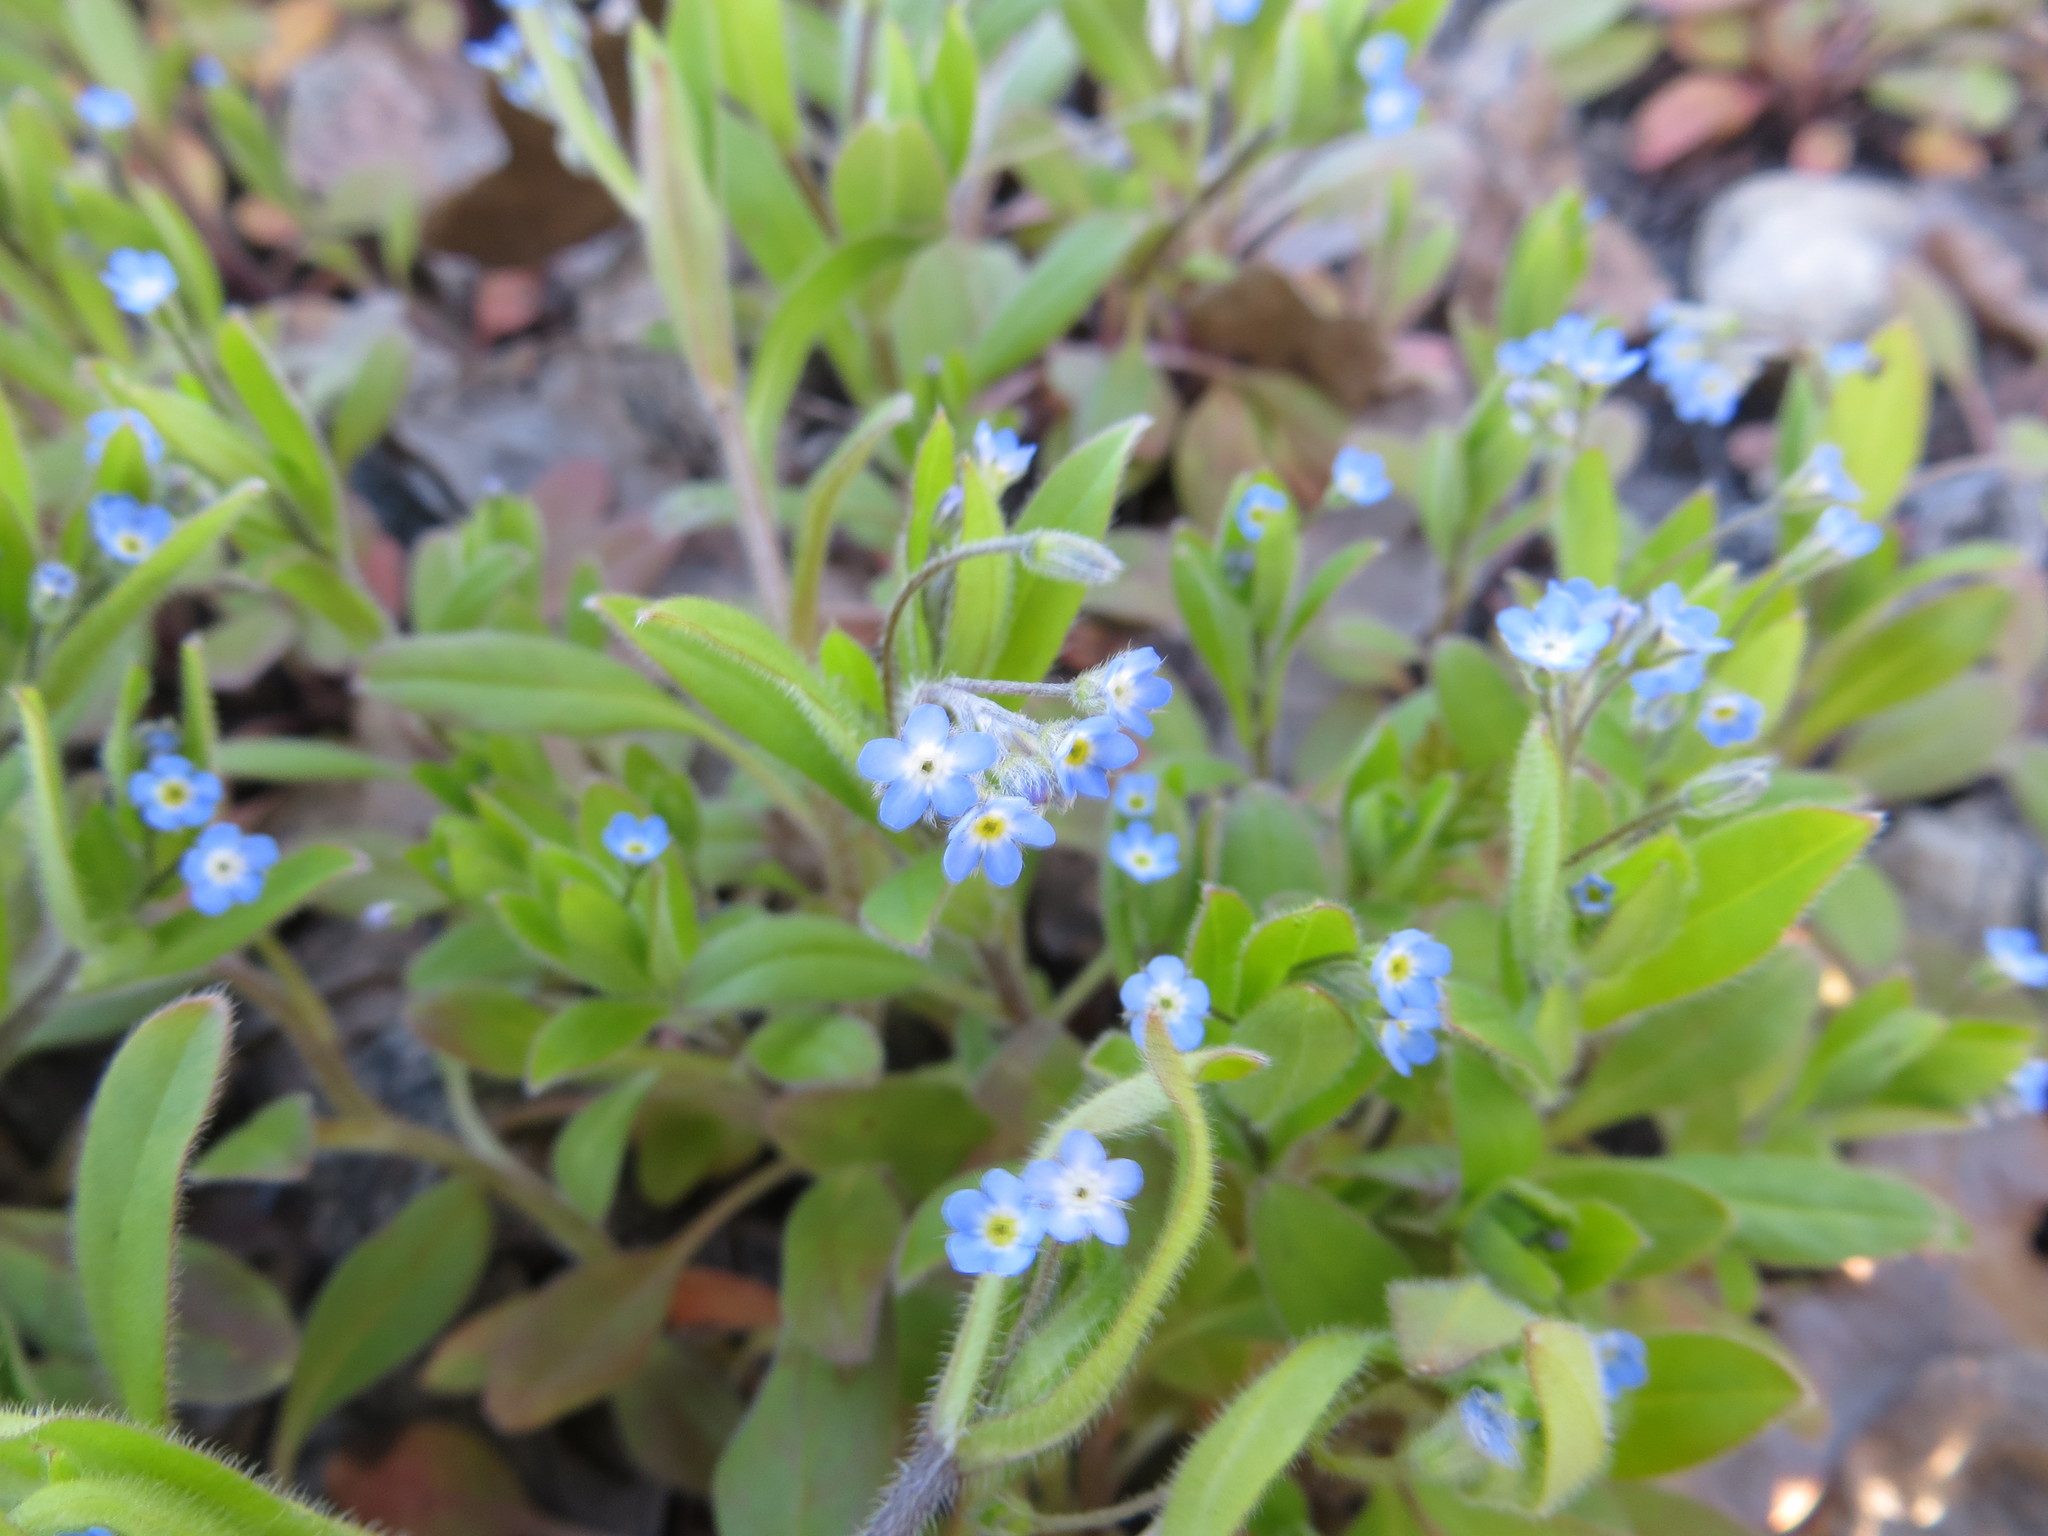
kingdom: Plantae
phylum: Tracheophyta
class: Magnoliopsida
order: Boraginales
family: Boraginaceae
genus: Myosotis
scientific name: Myosotis arvensis
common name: Field forget-me-not
